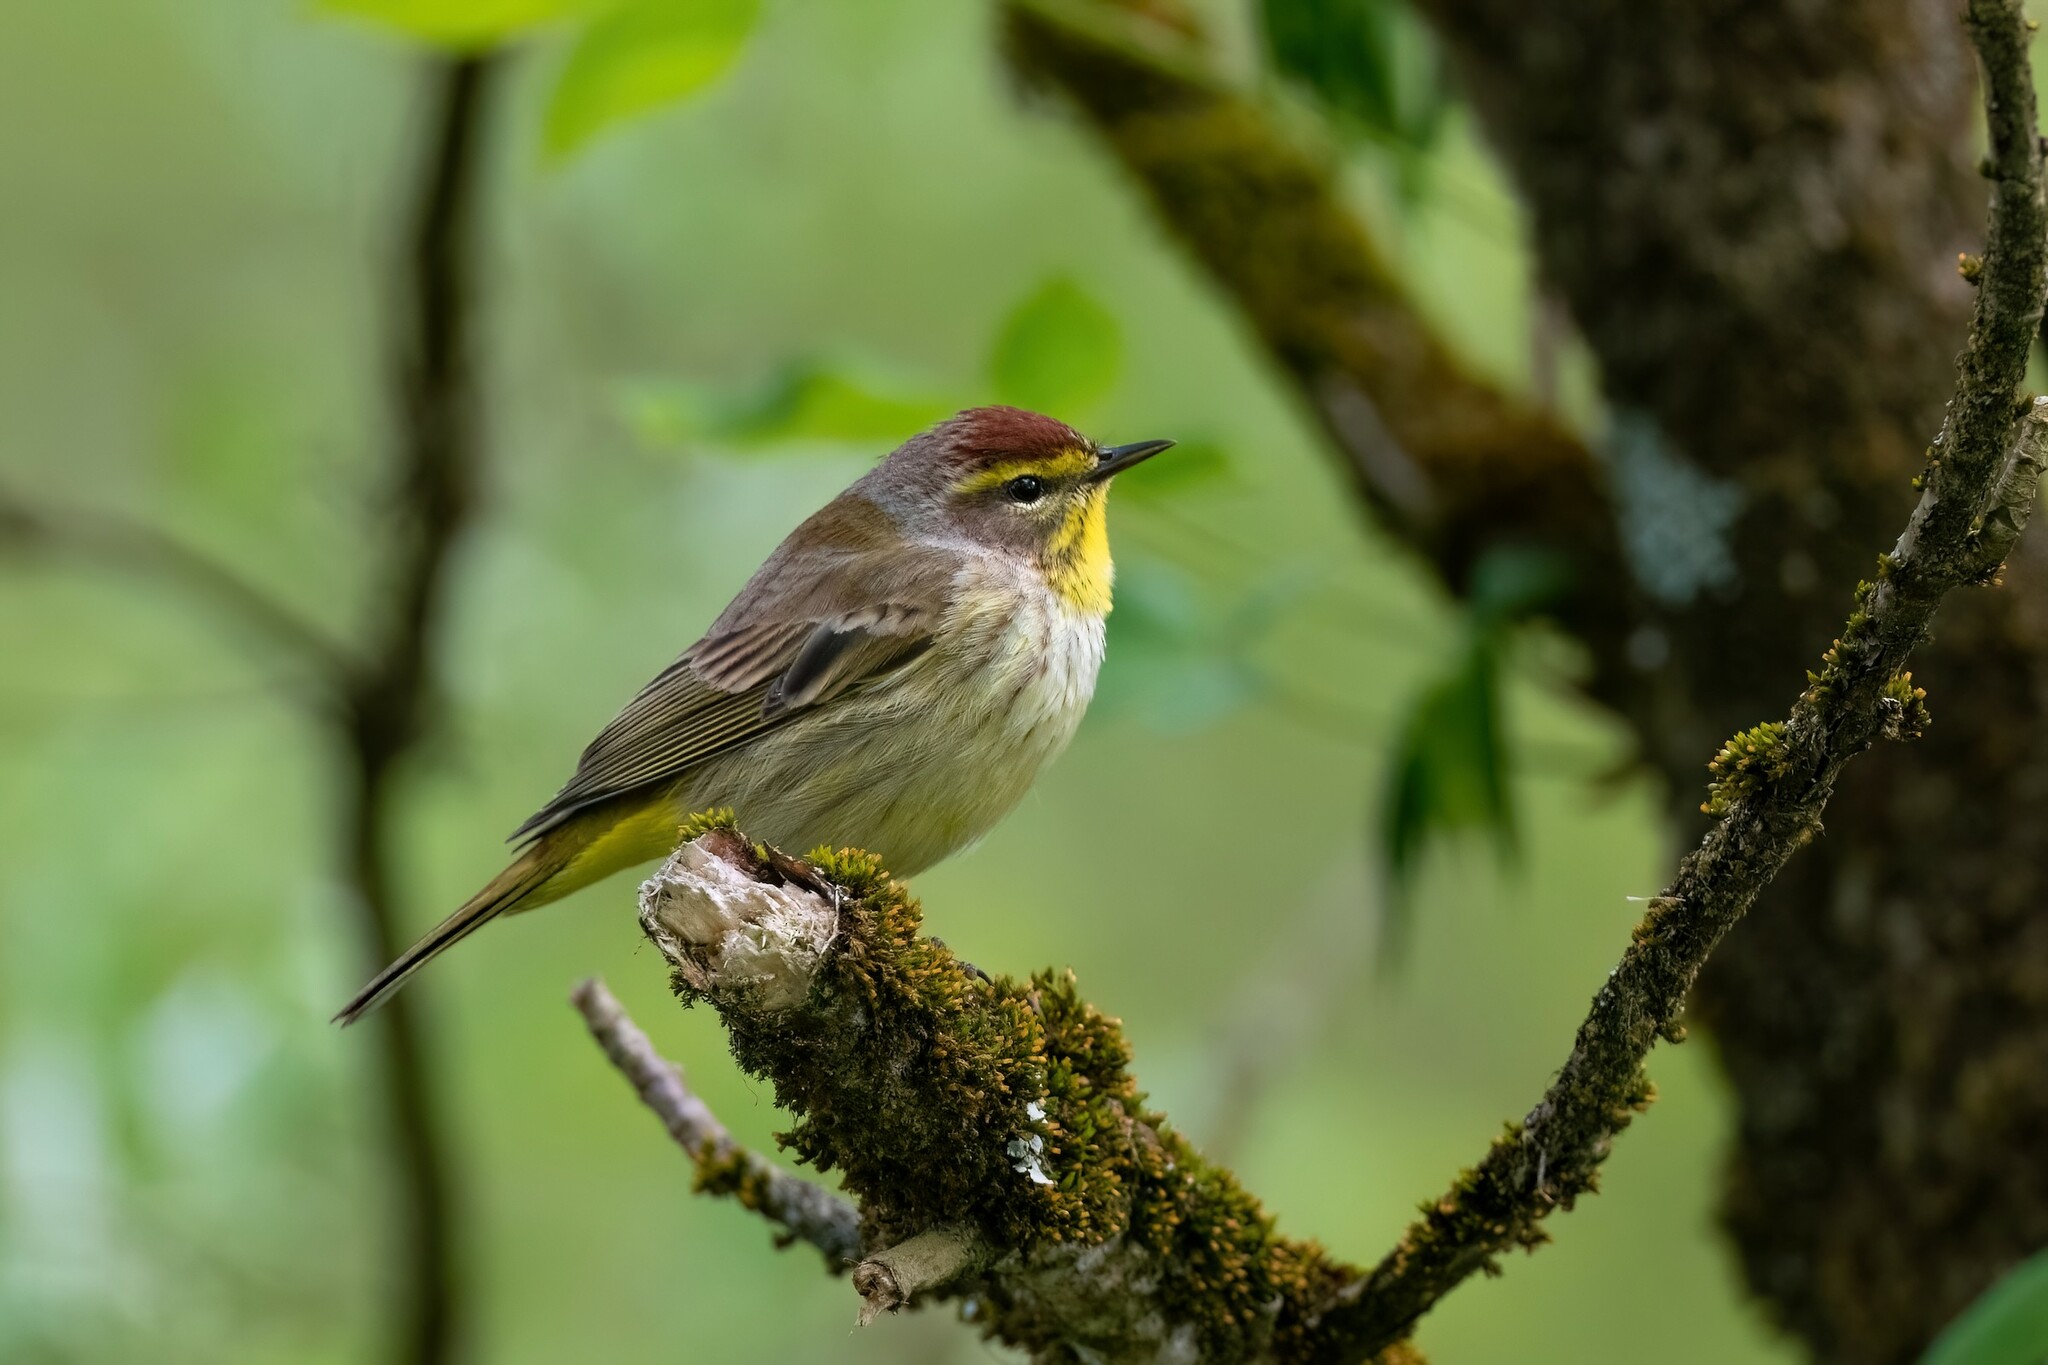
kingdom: Animalia
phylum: Chordata
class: Aves
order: Passeriformes
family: Parulidae
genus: Setophaga
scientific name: Setophaga palmarum
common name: Palm warbler
